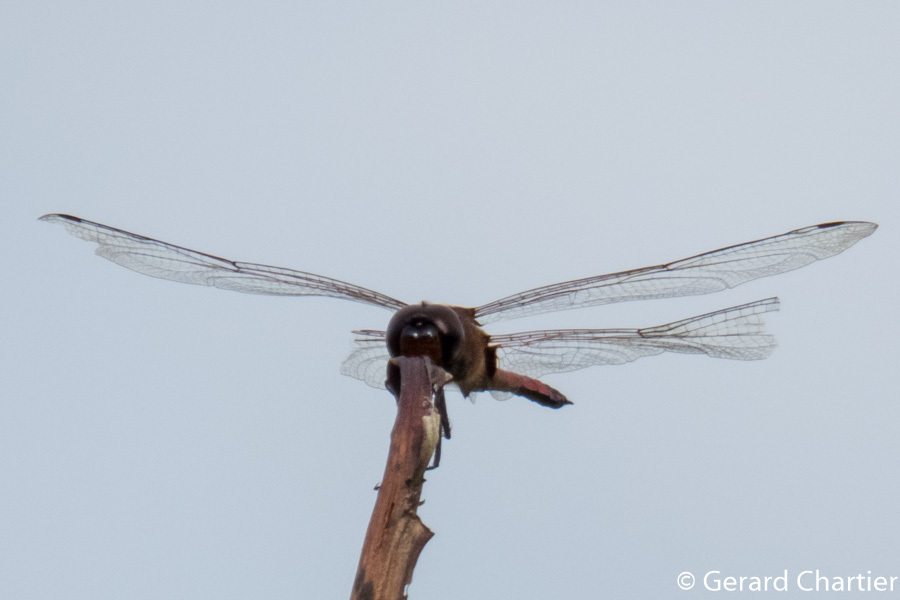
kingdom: Animalia
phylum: Arthropoda
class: Insecta
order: Odonata
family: Libellulidae
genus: Tramea
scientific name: Tramea transmarina
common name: Red glider dragonfly
